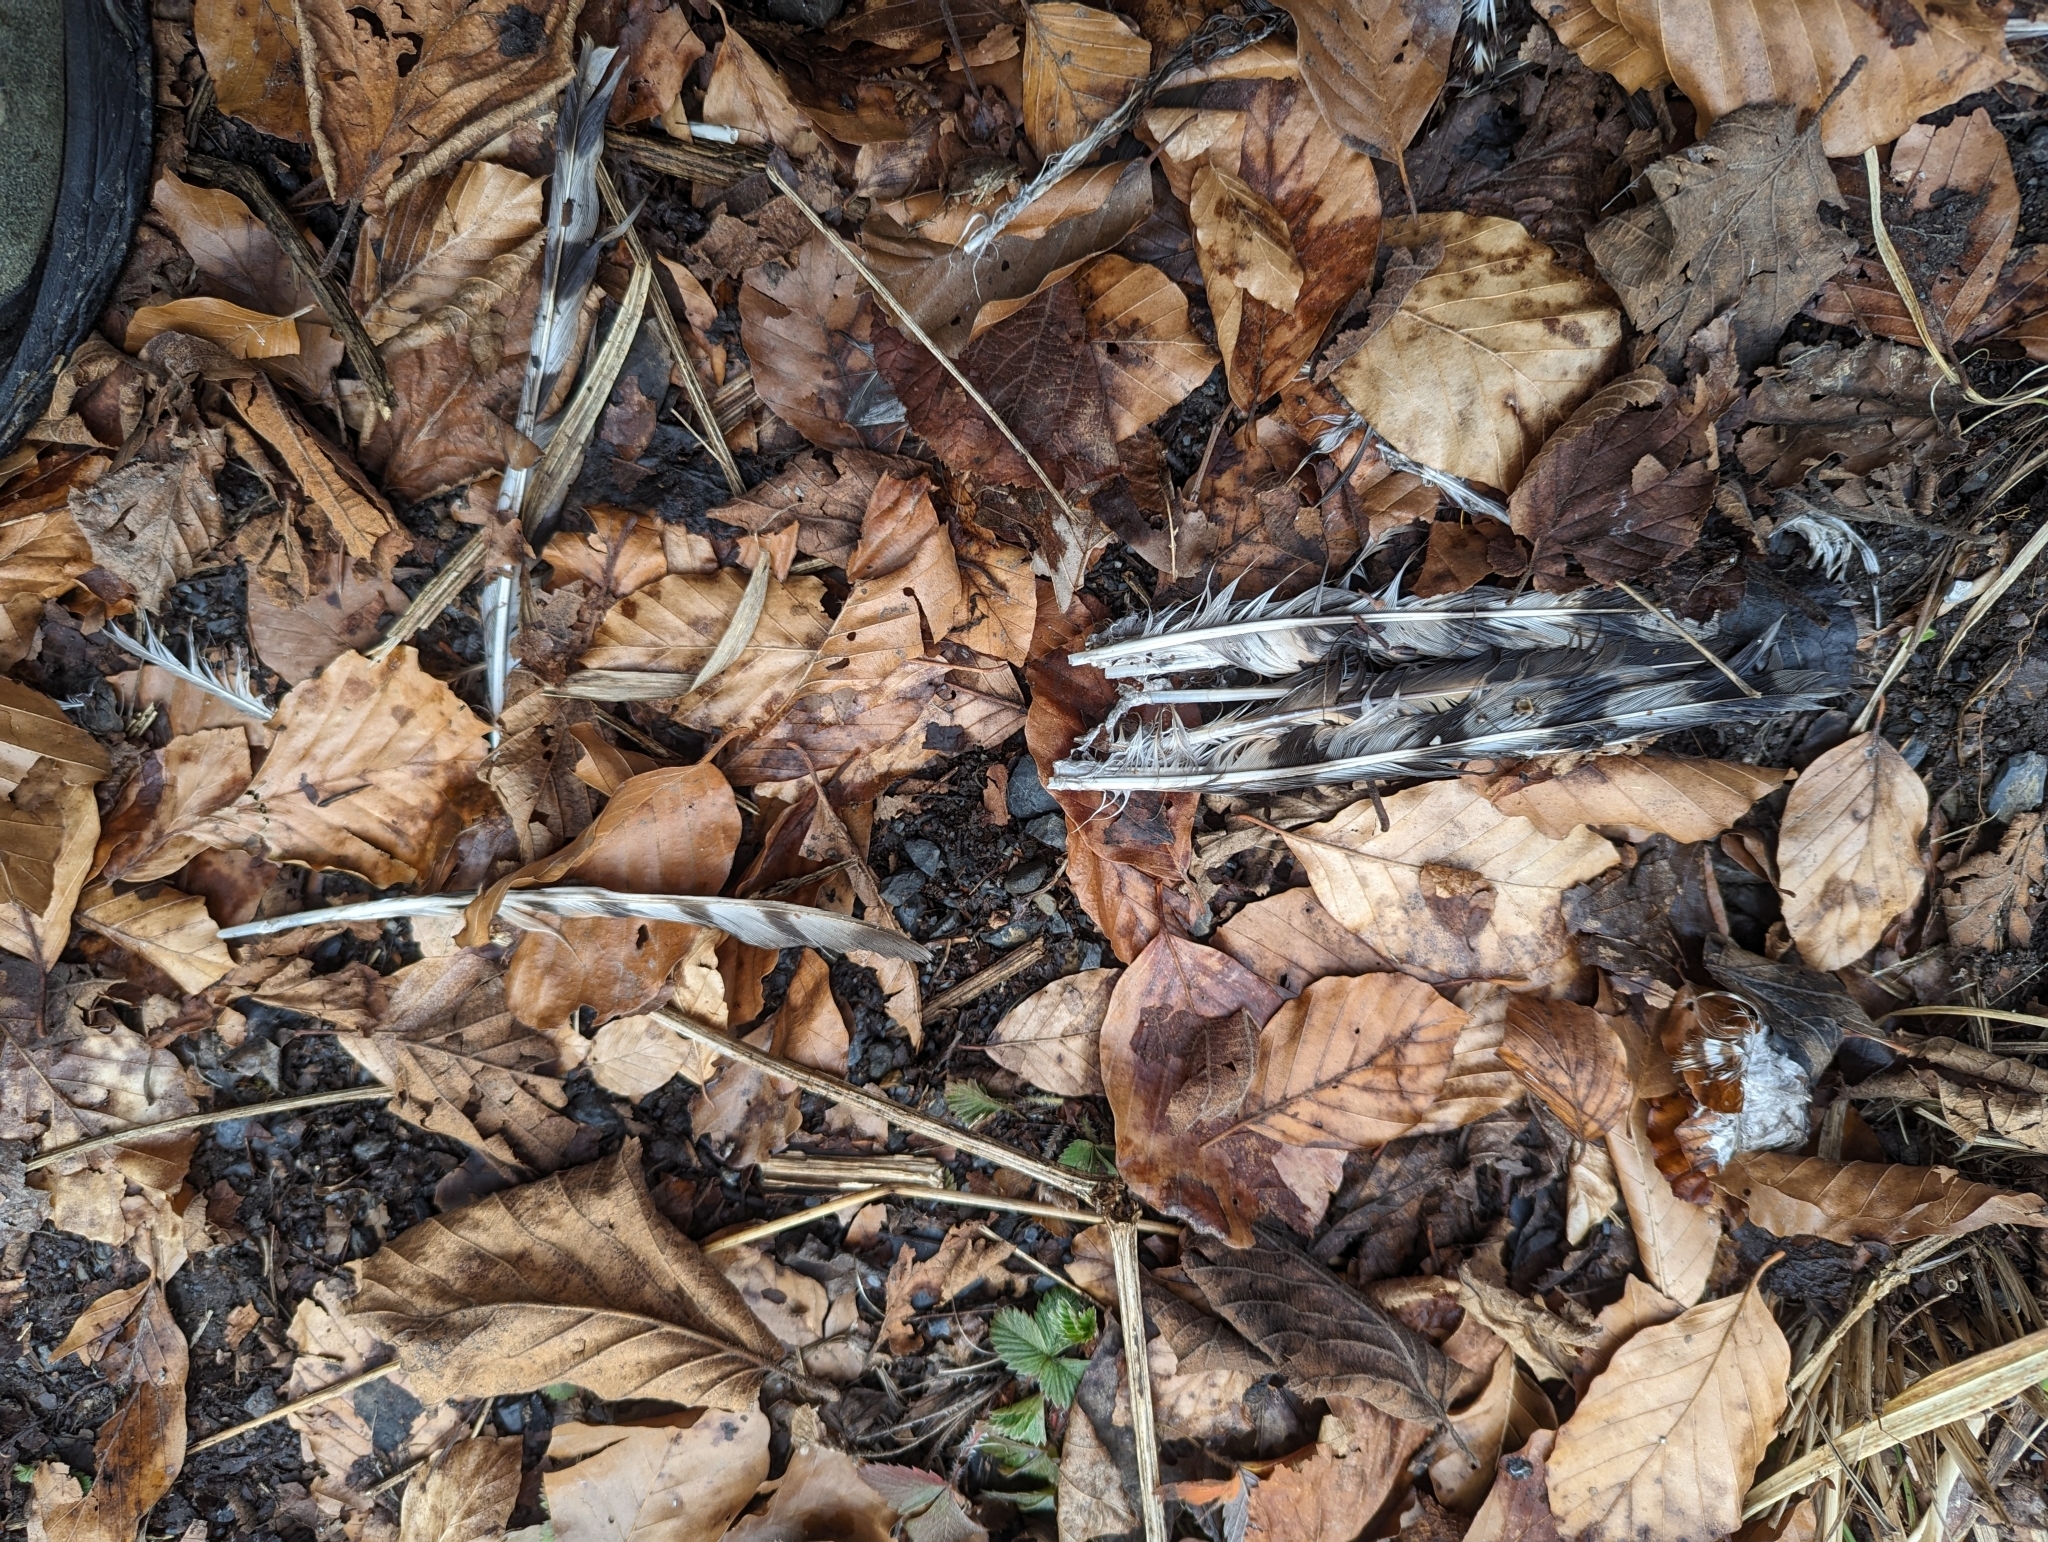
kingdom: Animalia
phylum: Chordata
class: Aves
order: Accipitriformes
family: Accipitridae
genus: Accipiter
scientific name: Accipiter nisus
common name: Eurasian sparrowhawk
